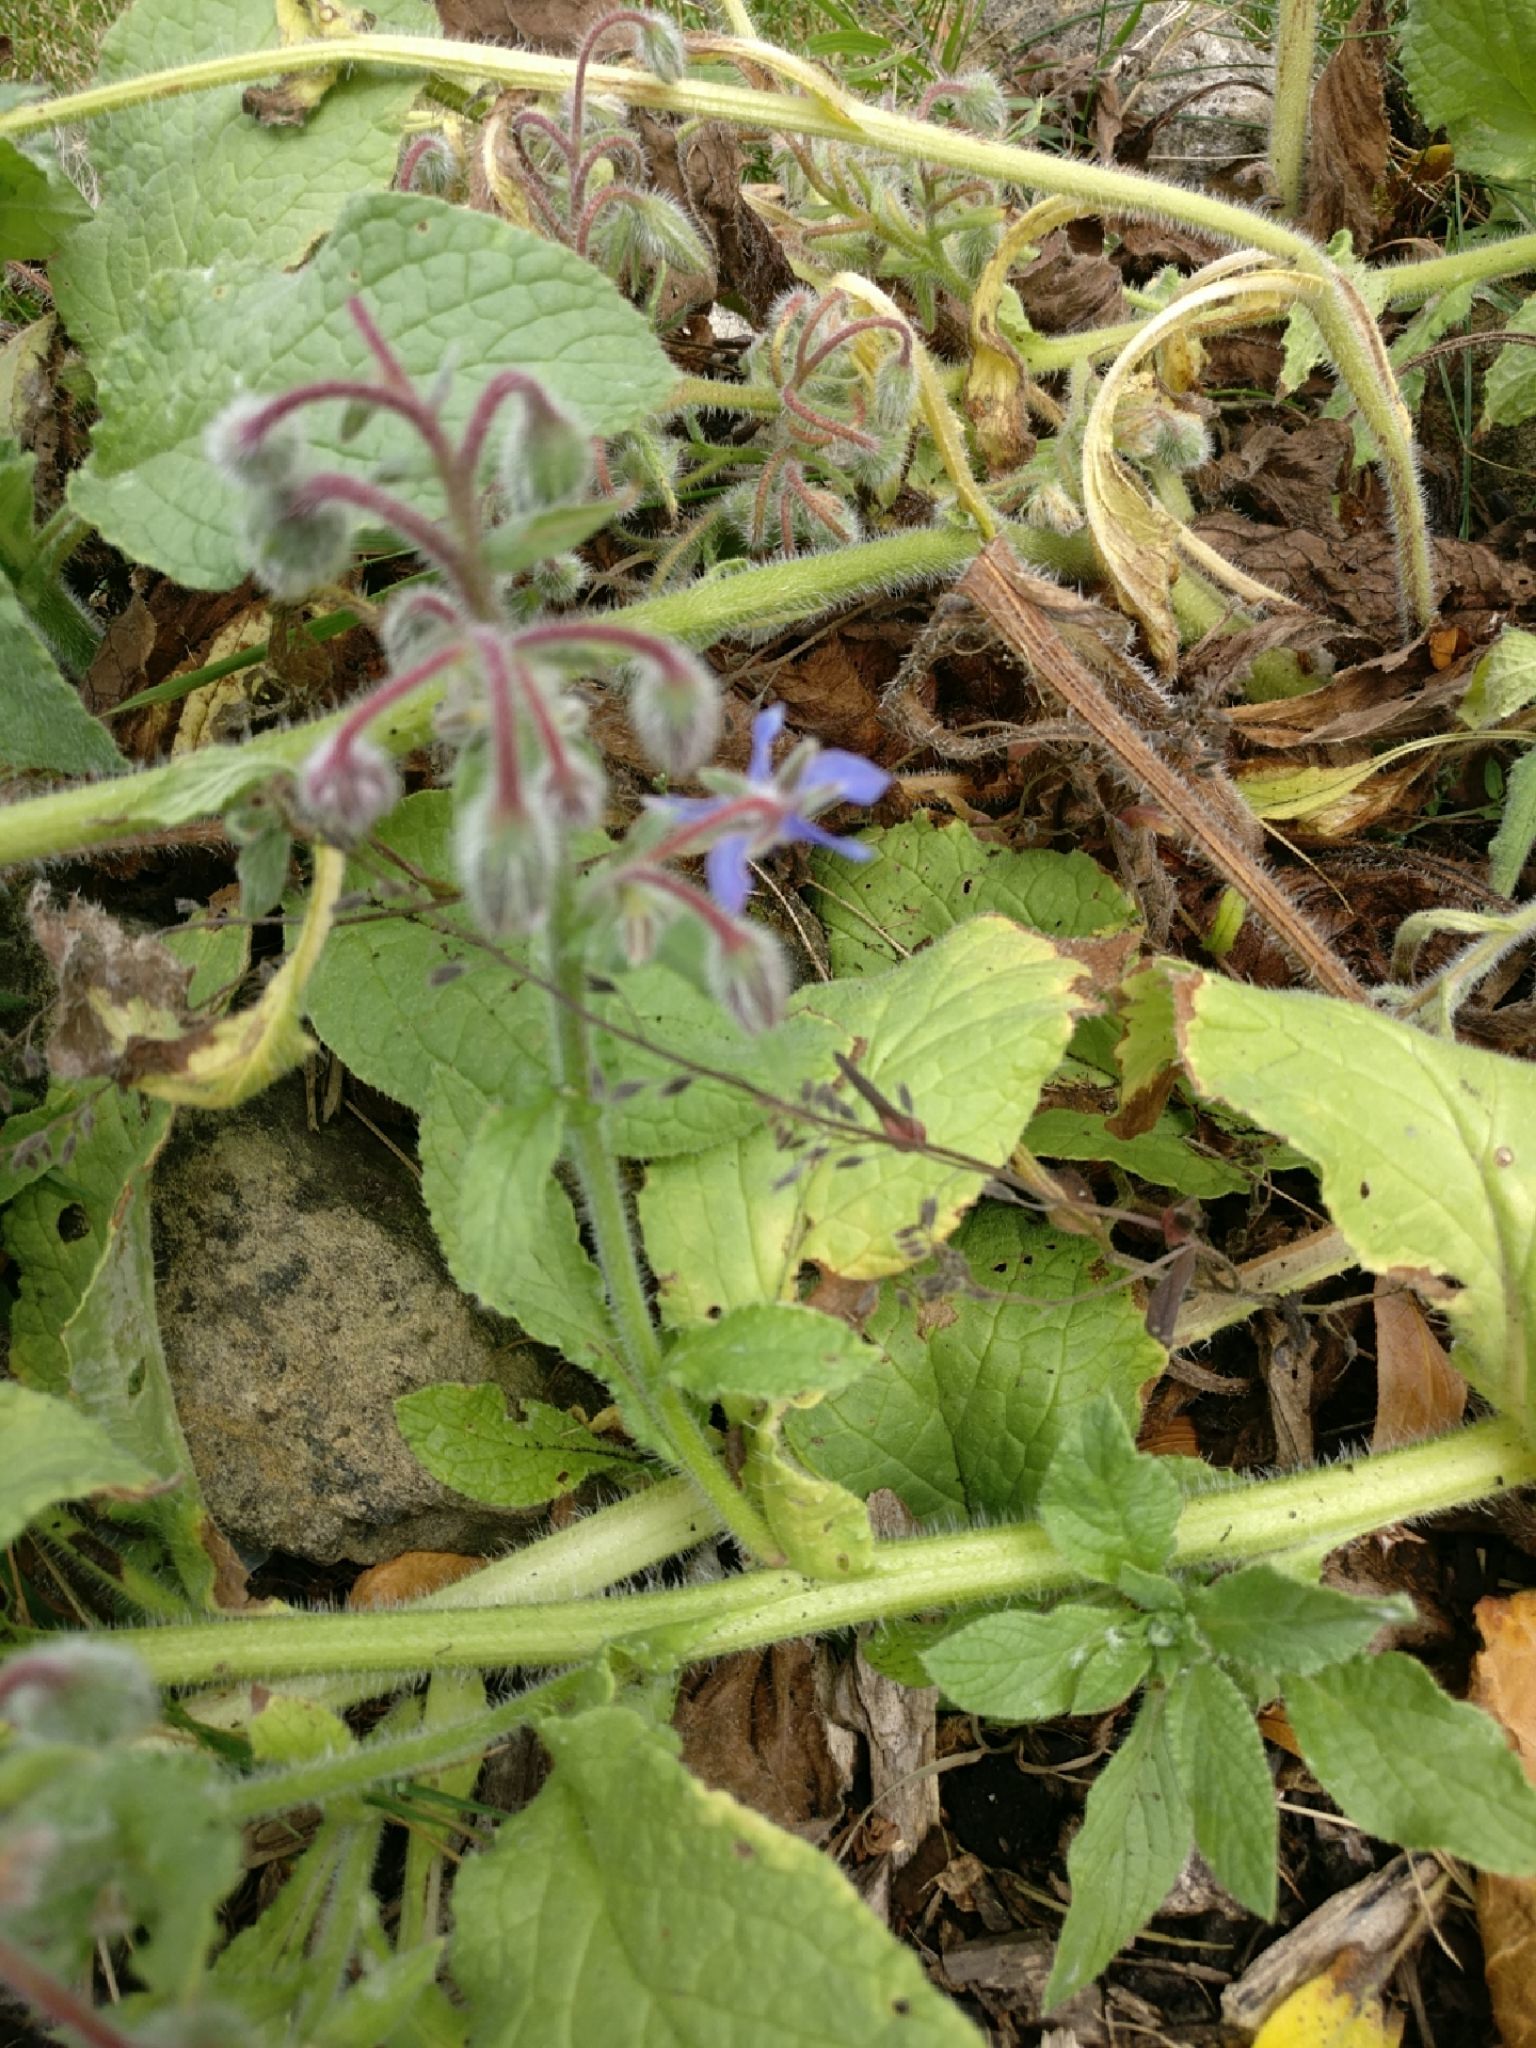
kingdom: Plantae
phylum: Tracheophyta
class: Magnoliopsida
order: Boraginales
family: Boraginaceae
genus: Borago
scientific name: Borago officinalis
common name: Borage
